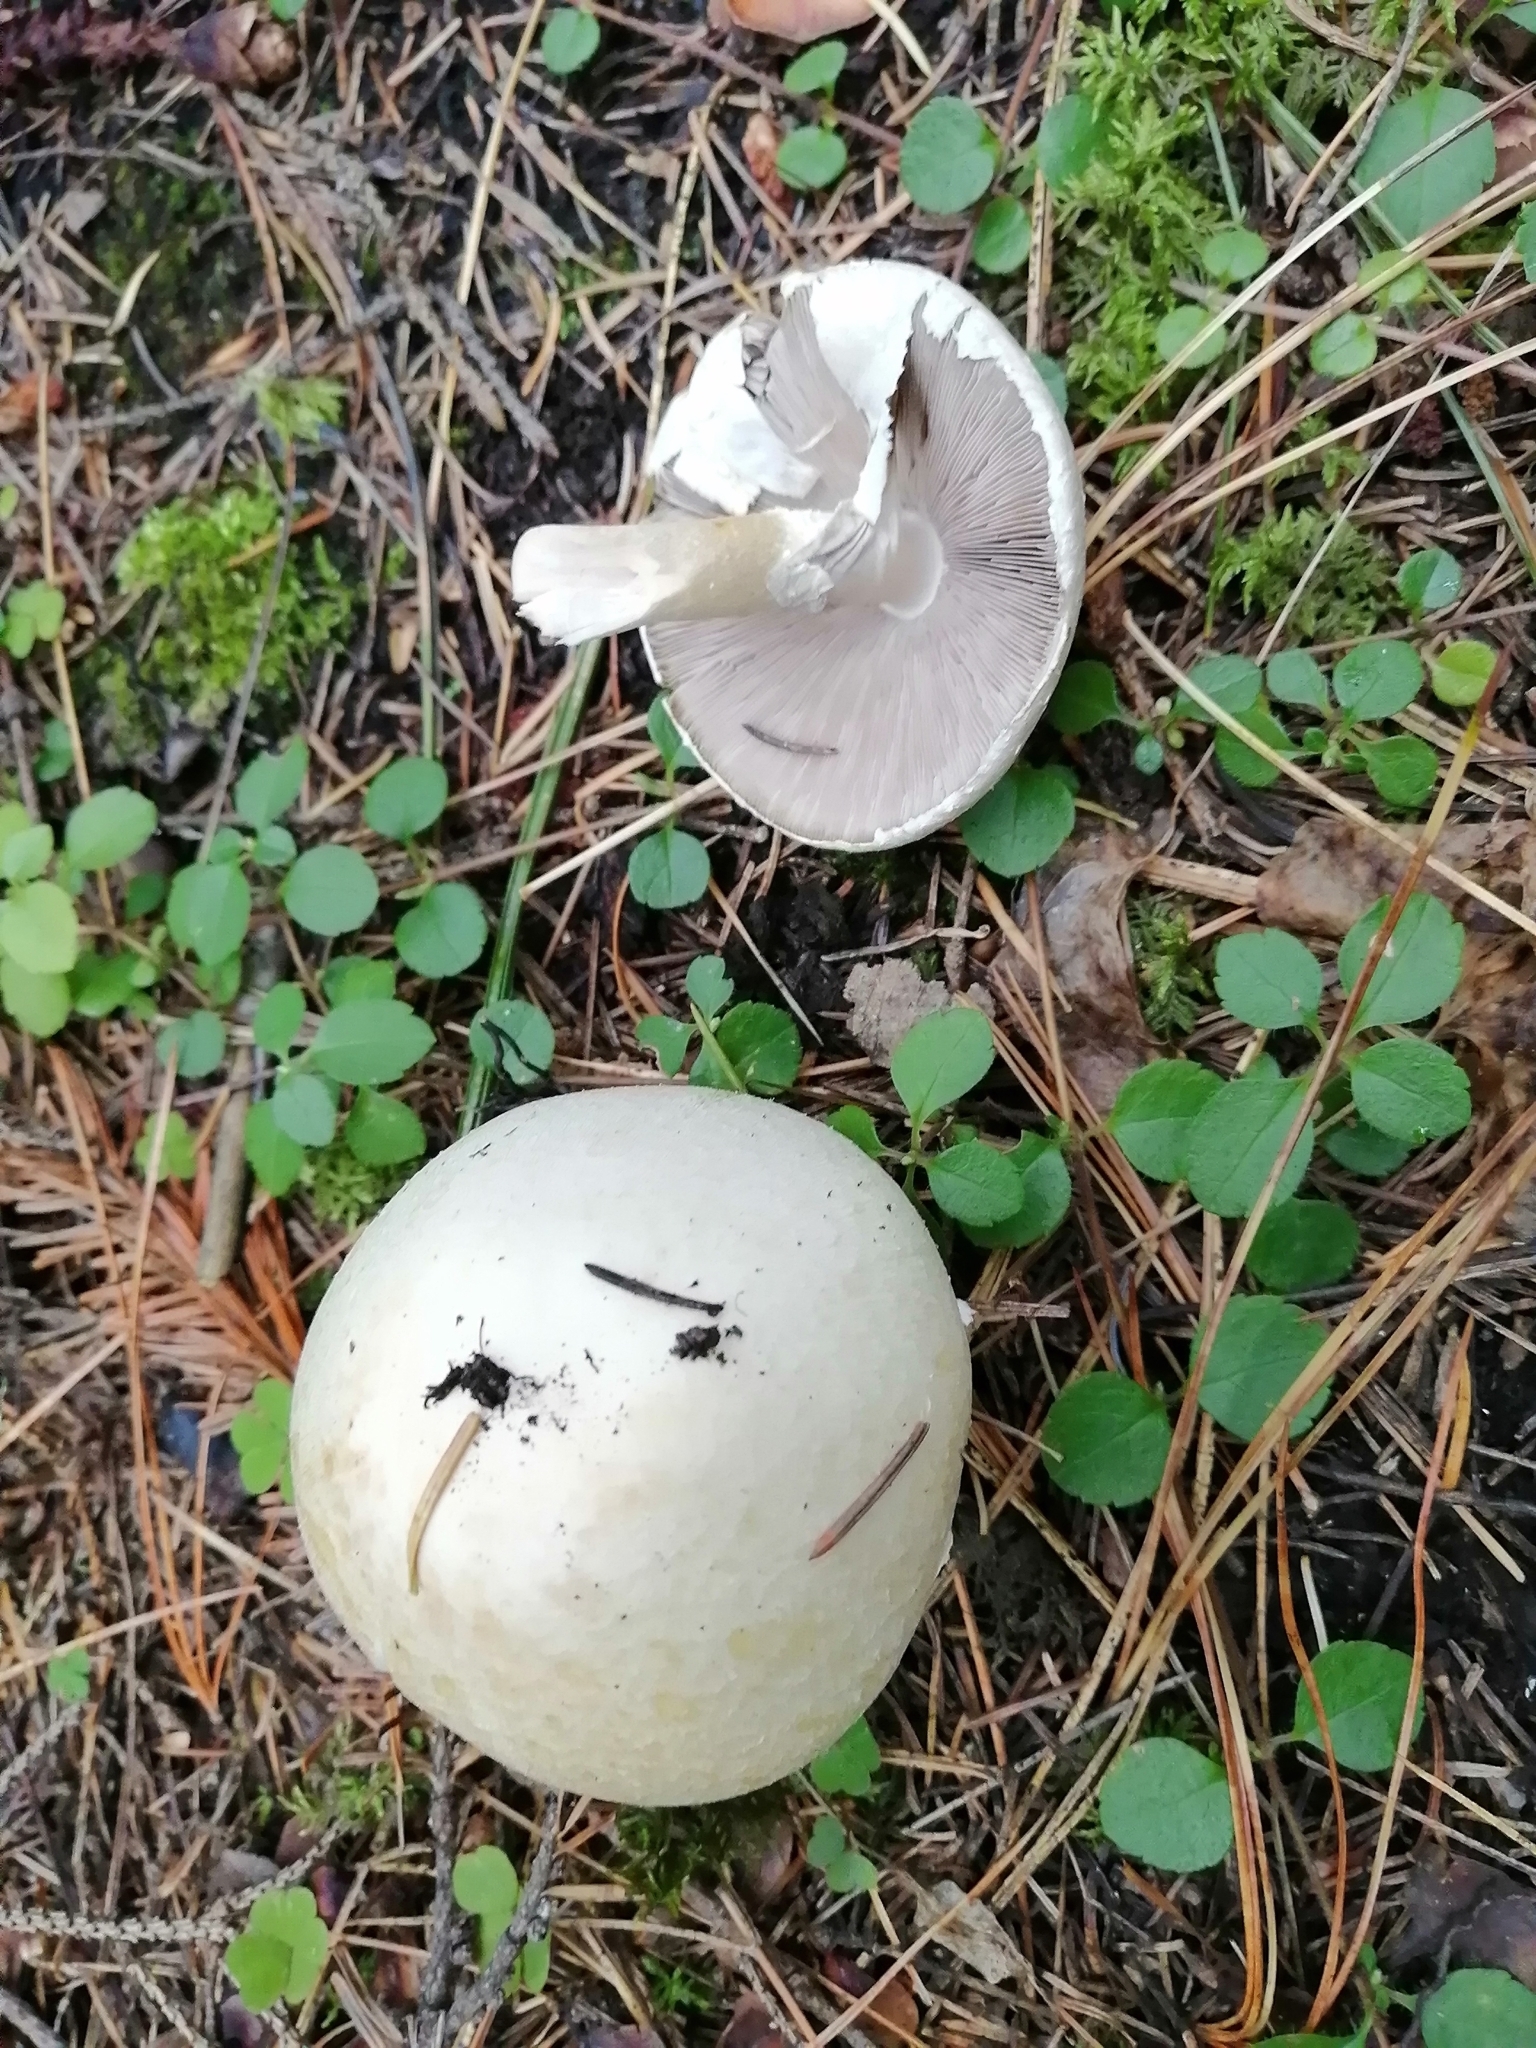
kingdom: Fungi
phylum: Basidiomycota
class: Agaricomycetes
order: Agaricales
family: Agaricaceae
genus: Agaricus
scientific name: Agaricus sylvicola
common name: Wood mushroom
